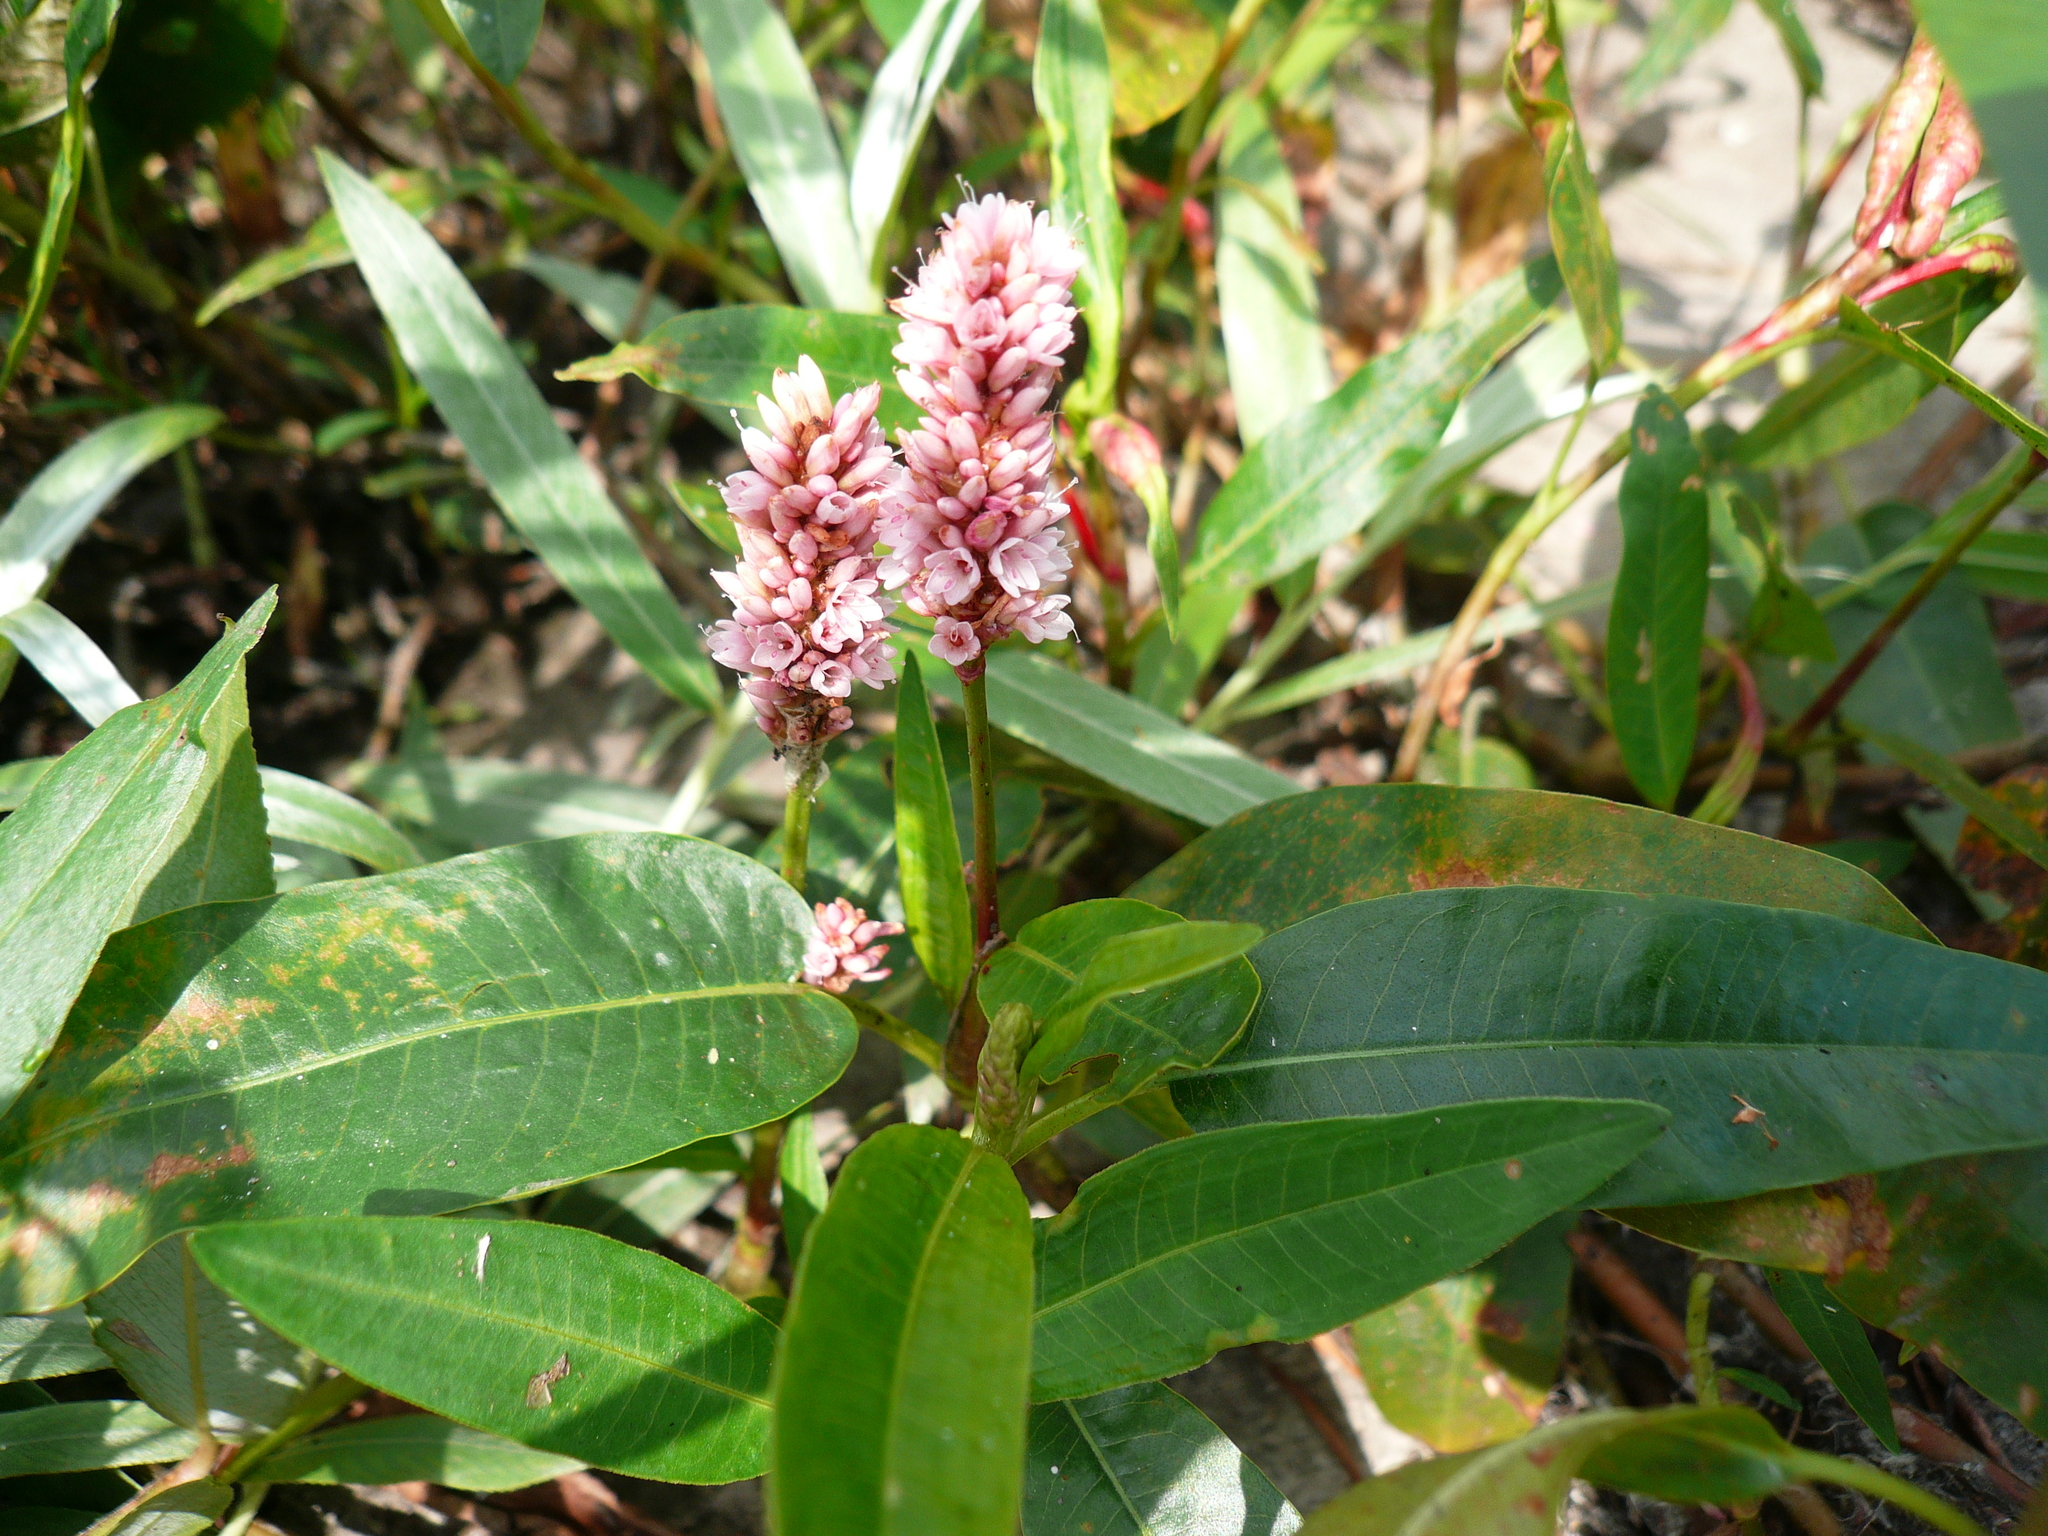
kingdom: Plantae
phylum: Tracheophyta
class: Magnoliopsida
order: Caryophyllales
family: Polygonaceae
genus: Persicaria
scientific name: Persicaria amphibia
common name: Amphibious bistort
